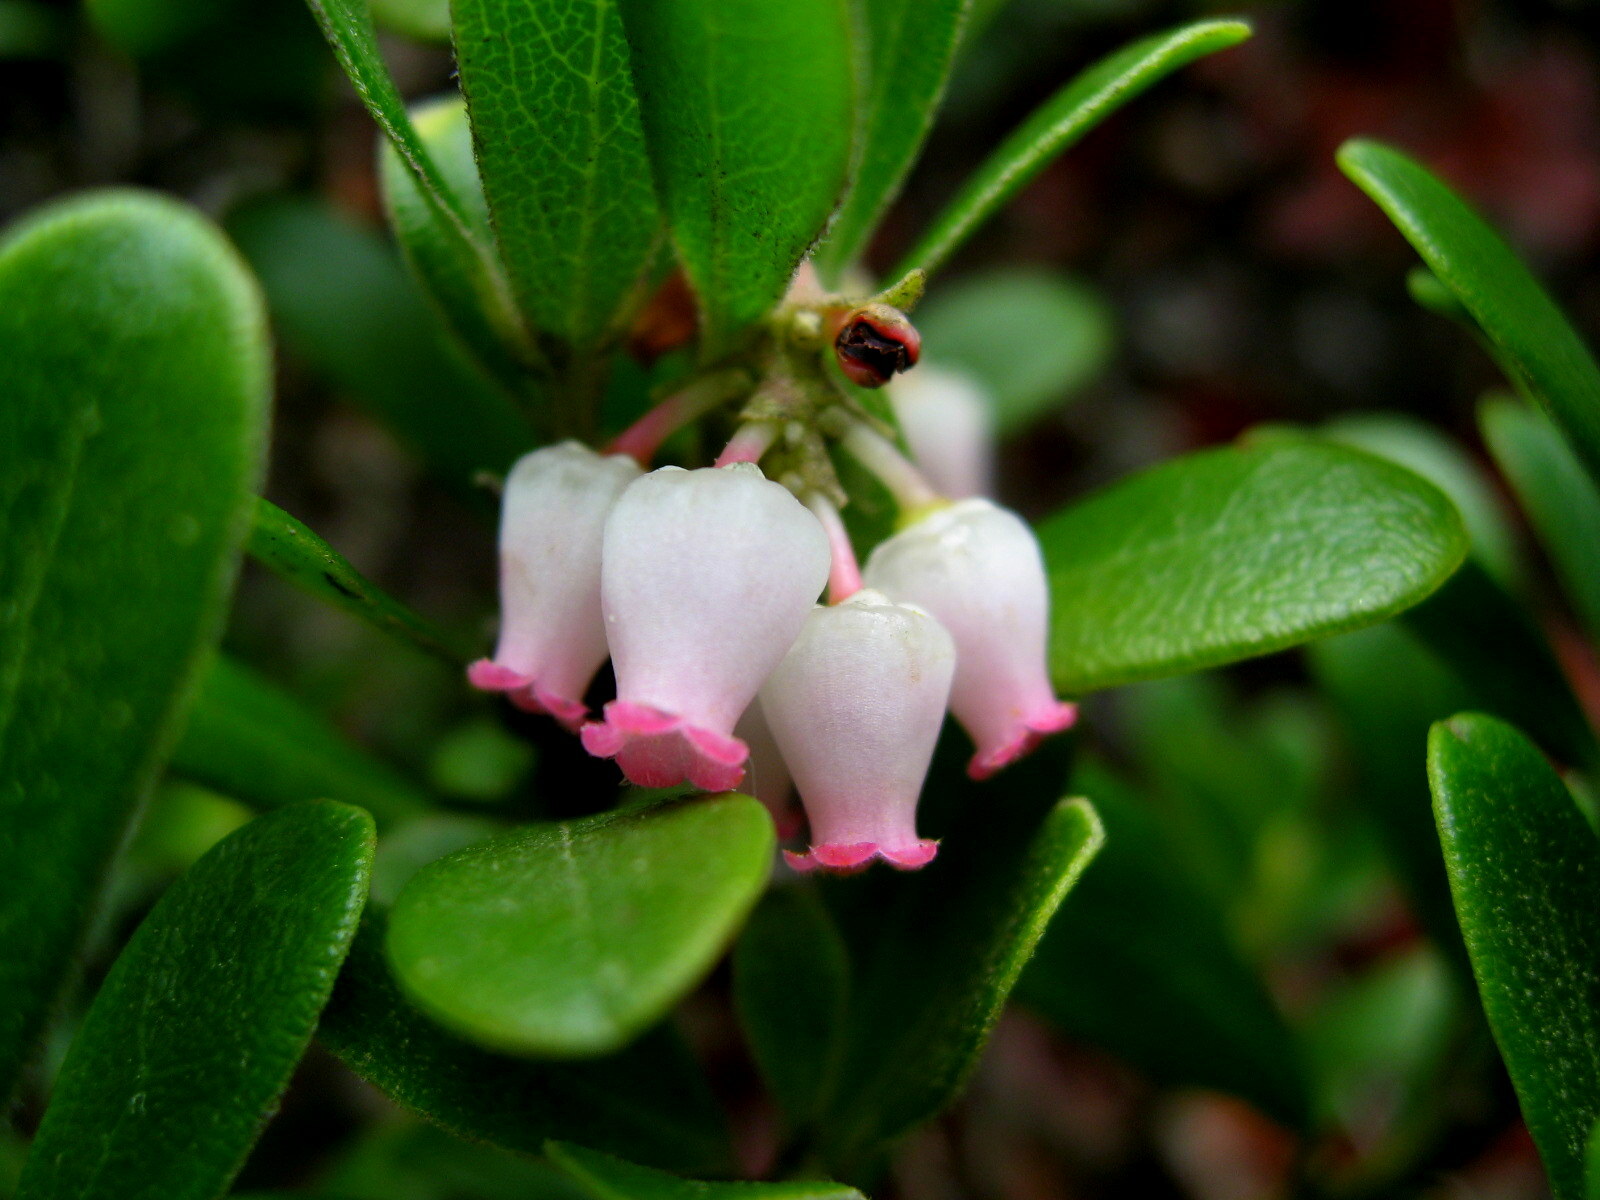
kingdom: Plantae
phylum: Tracheophyta
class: Magnoliopsida
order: Ericales
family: Ericaceae
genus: Arctostaphylos
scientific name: Arctostaphylos uva-ursi
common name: Bearberry
